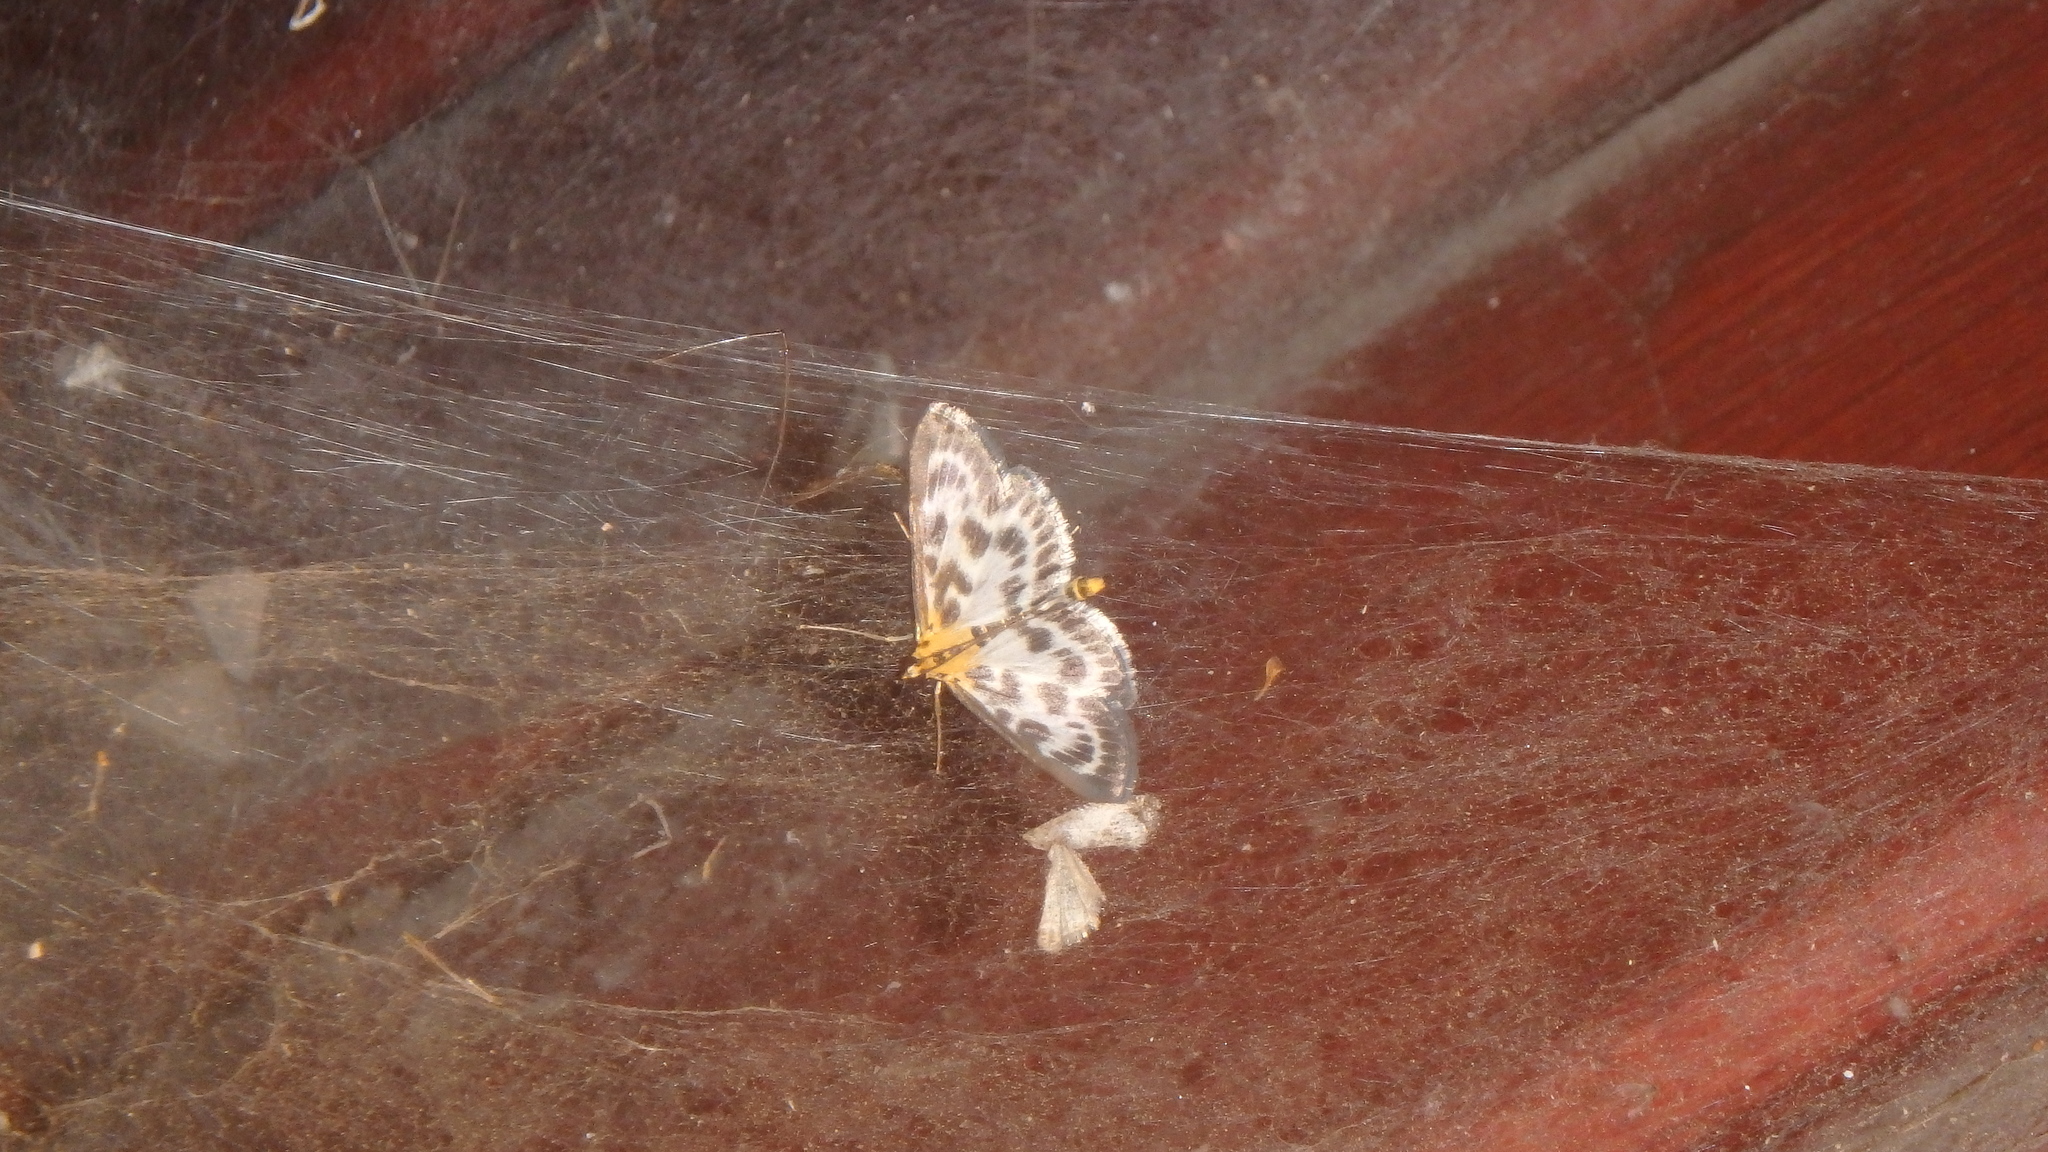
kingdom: Animalia
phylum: Arthropoda
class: Insecta
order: Lepidoptera
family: Crambidae
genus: Anania
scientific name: Anania hortulata
